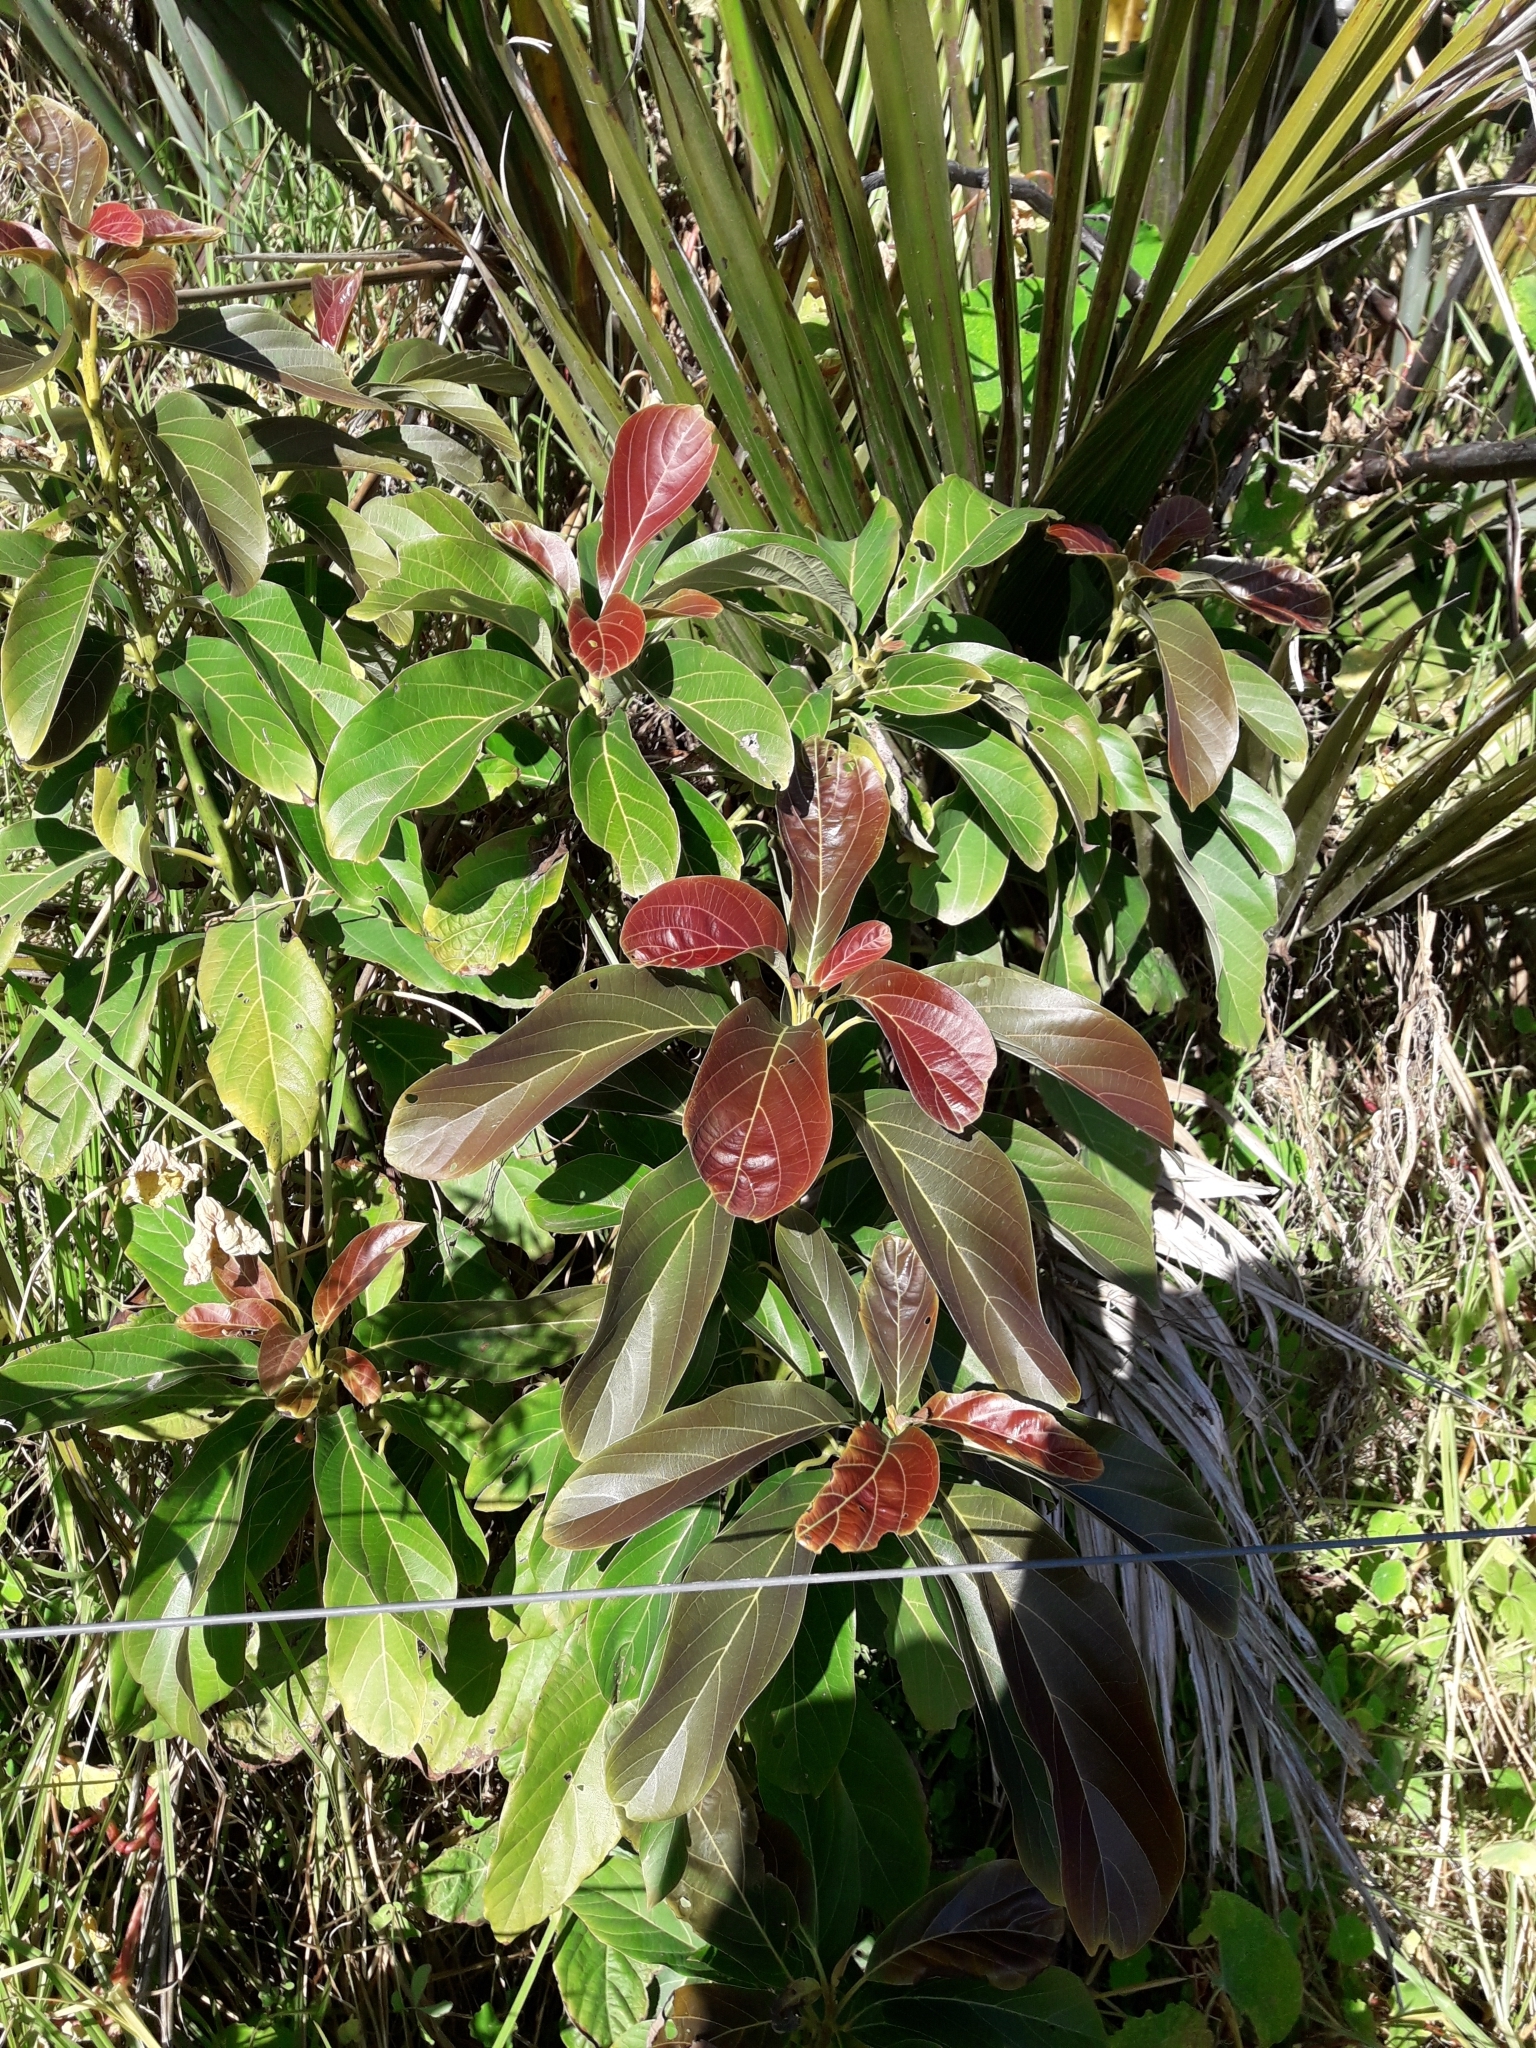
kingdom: Plantae
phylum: Tracheophyta
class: Magnoliopsida
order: Laurales
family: Lauraceae
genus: Persea
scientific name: Persea americana
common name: Avocado
